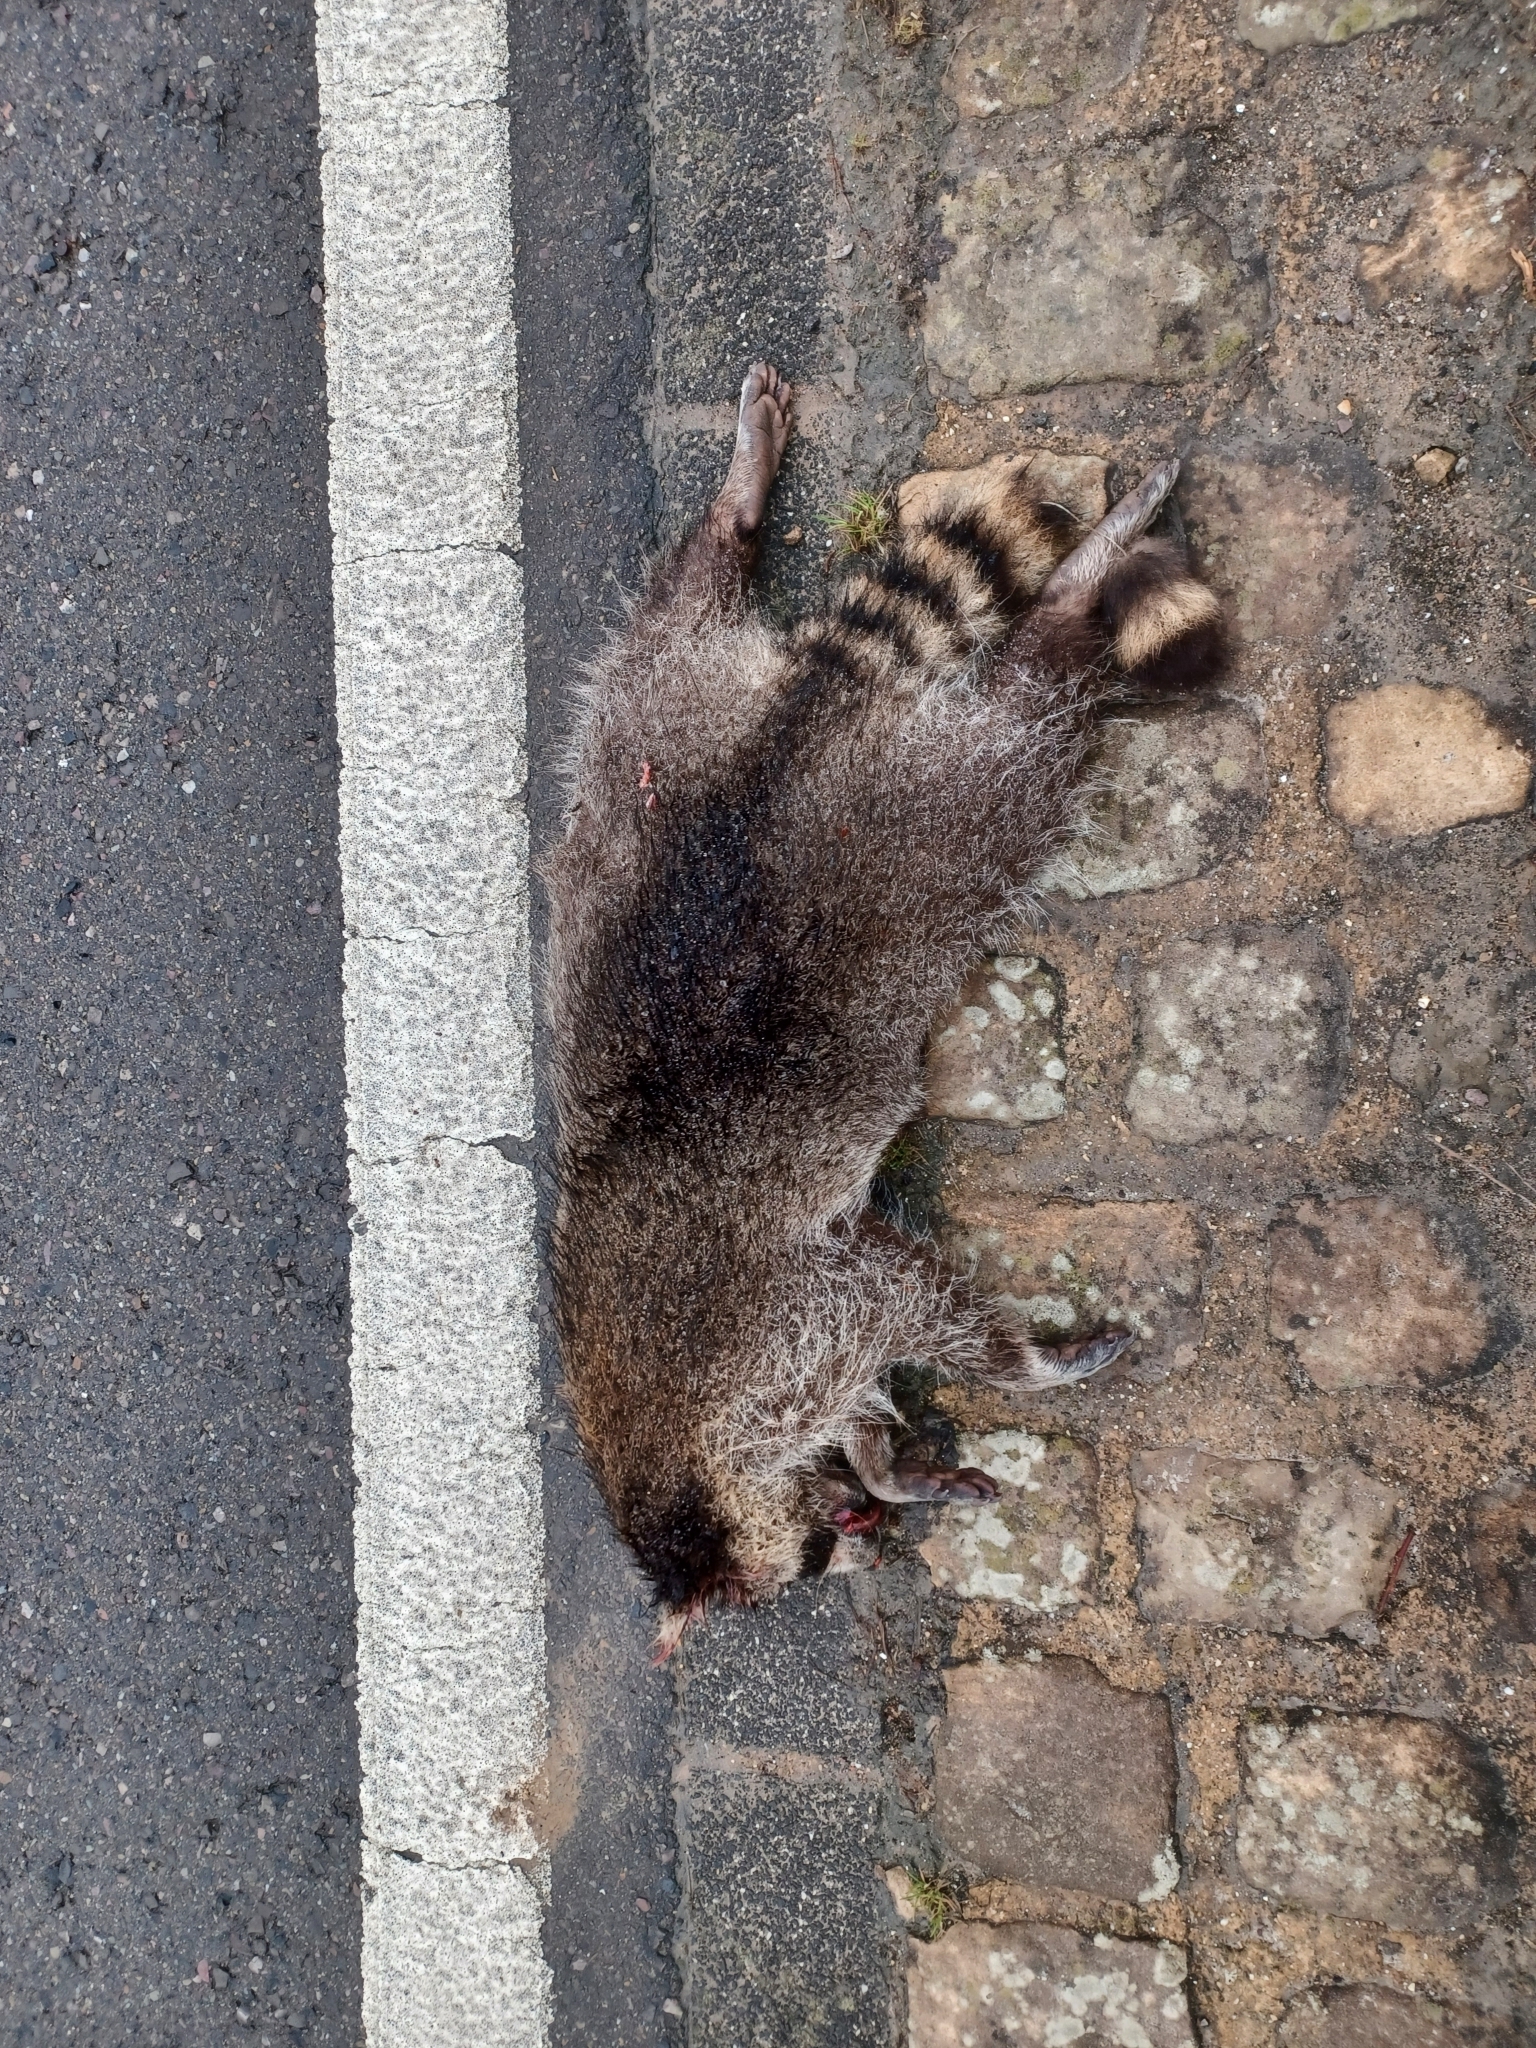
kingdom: Animalia
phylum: Chordata
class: Mammalia
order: Carnivora
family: Procyonidae
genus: Procyon
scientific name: Procyon lotor
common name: Raccoon
